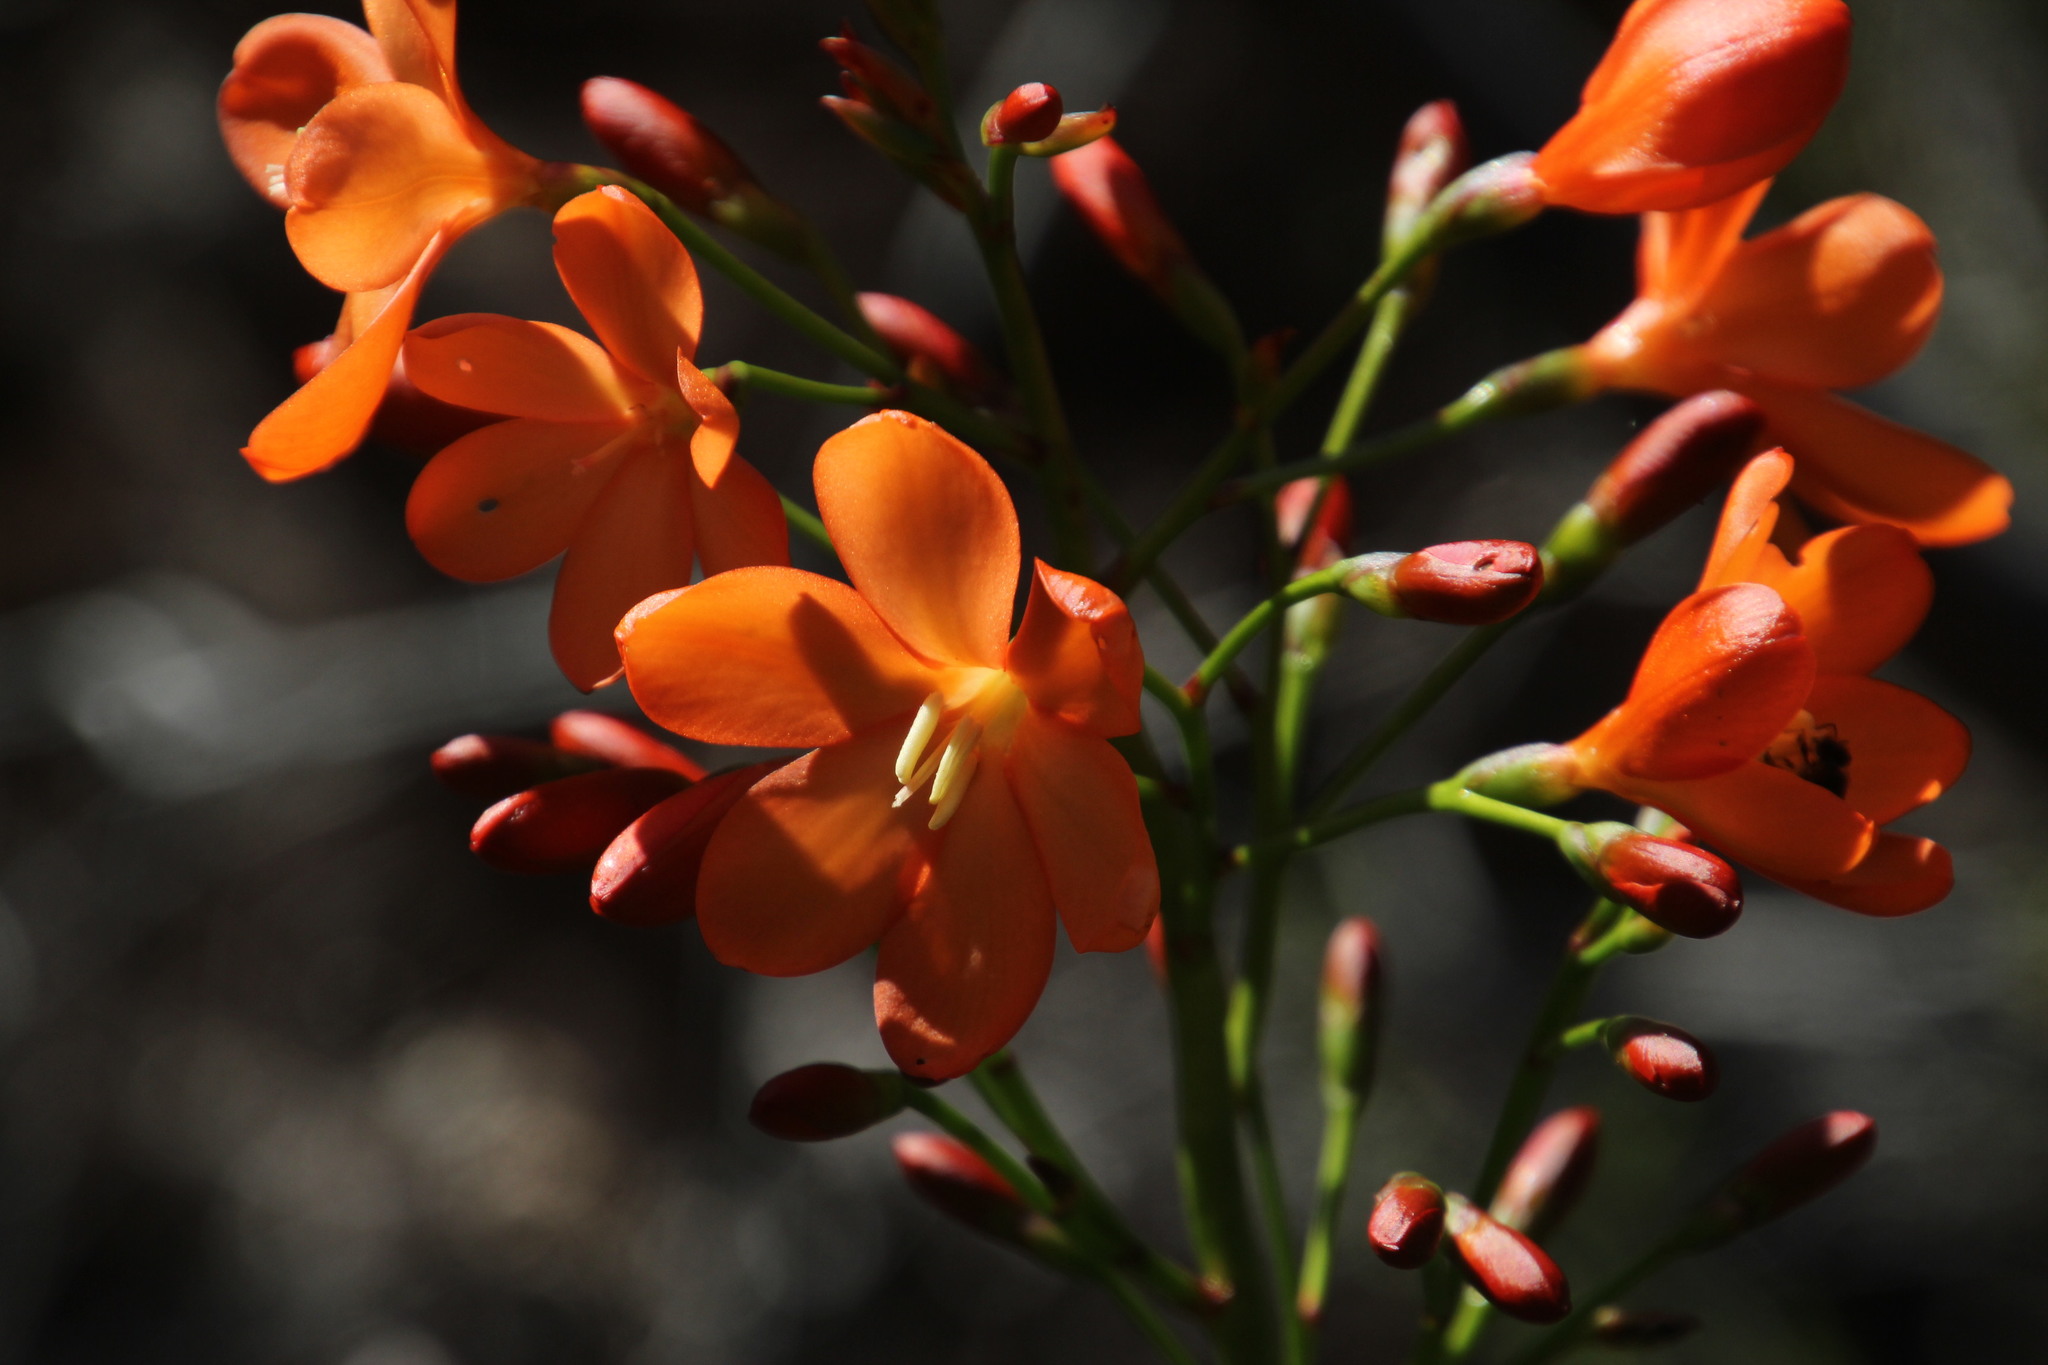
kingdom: Plantae
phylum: Tracheophyta
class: Liliopsida
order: Asparagales
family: Iridaceae
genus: Pillansia
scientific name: Pillansia templemannii
